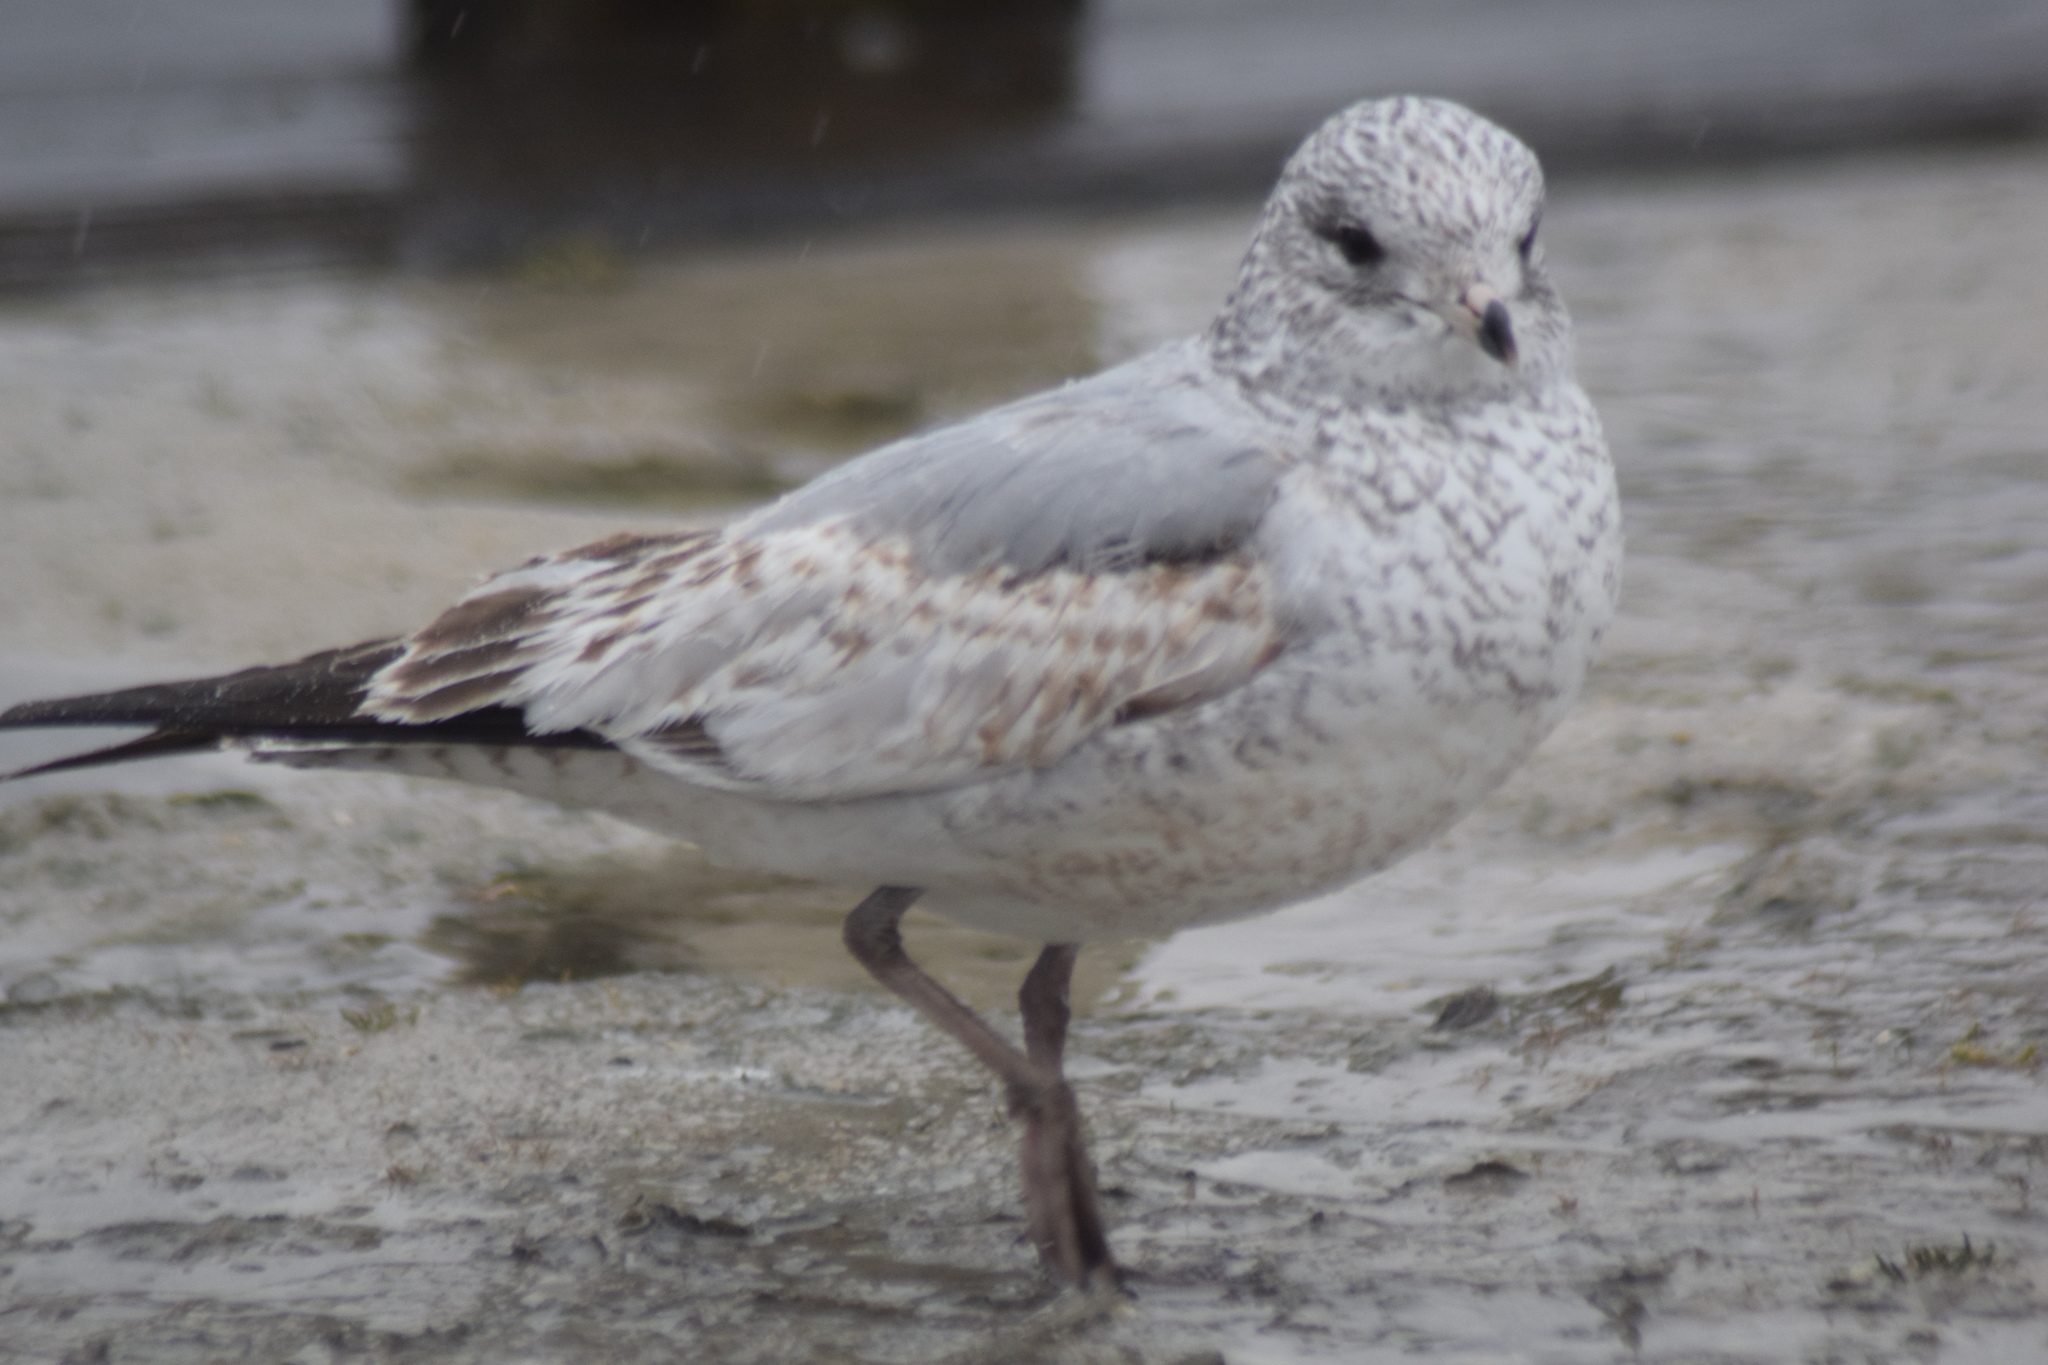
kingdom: Animalia
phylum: Chordata
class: Aves
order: Charadriiformes
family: Laridae
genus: Larus
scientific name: Larus delawarensis
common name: Ring-billed gull
